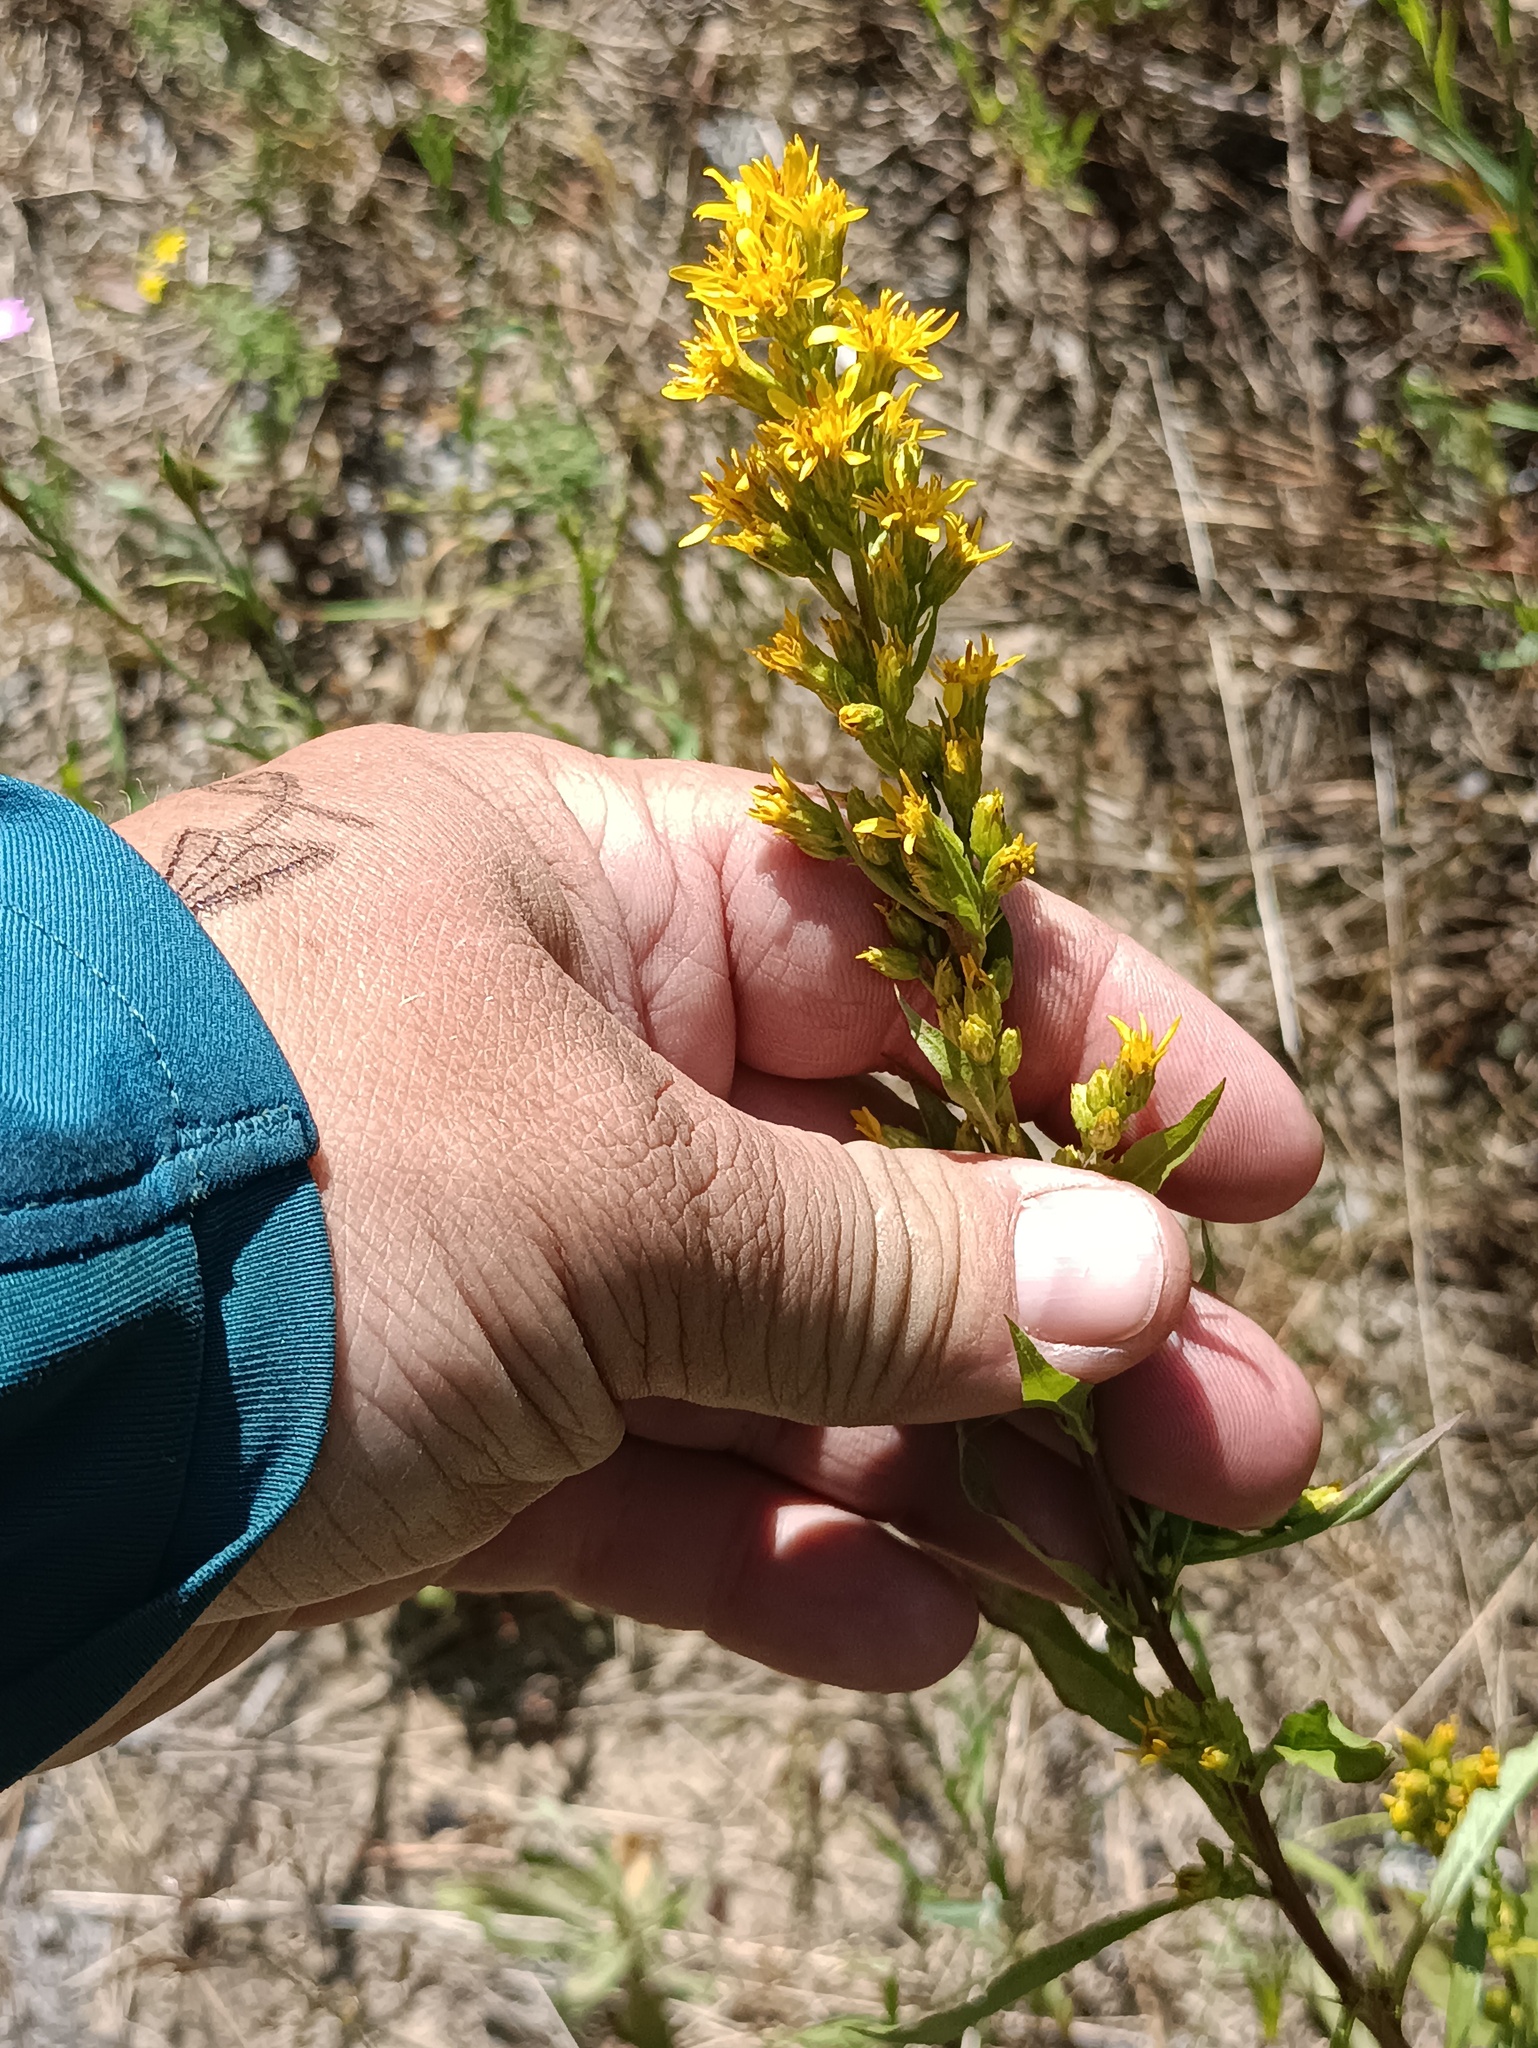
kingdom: Plantae
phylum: Tracheophyta
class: Magnoliopsida
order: Asterales
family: Asteraceae
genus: Solidago
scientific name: Solidago virgaurea
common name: Goldenrod
